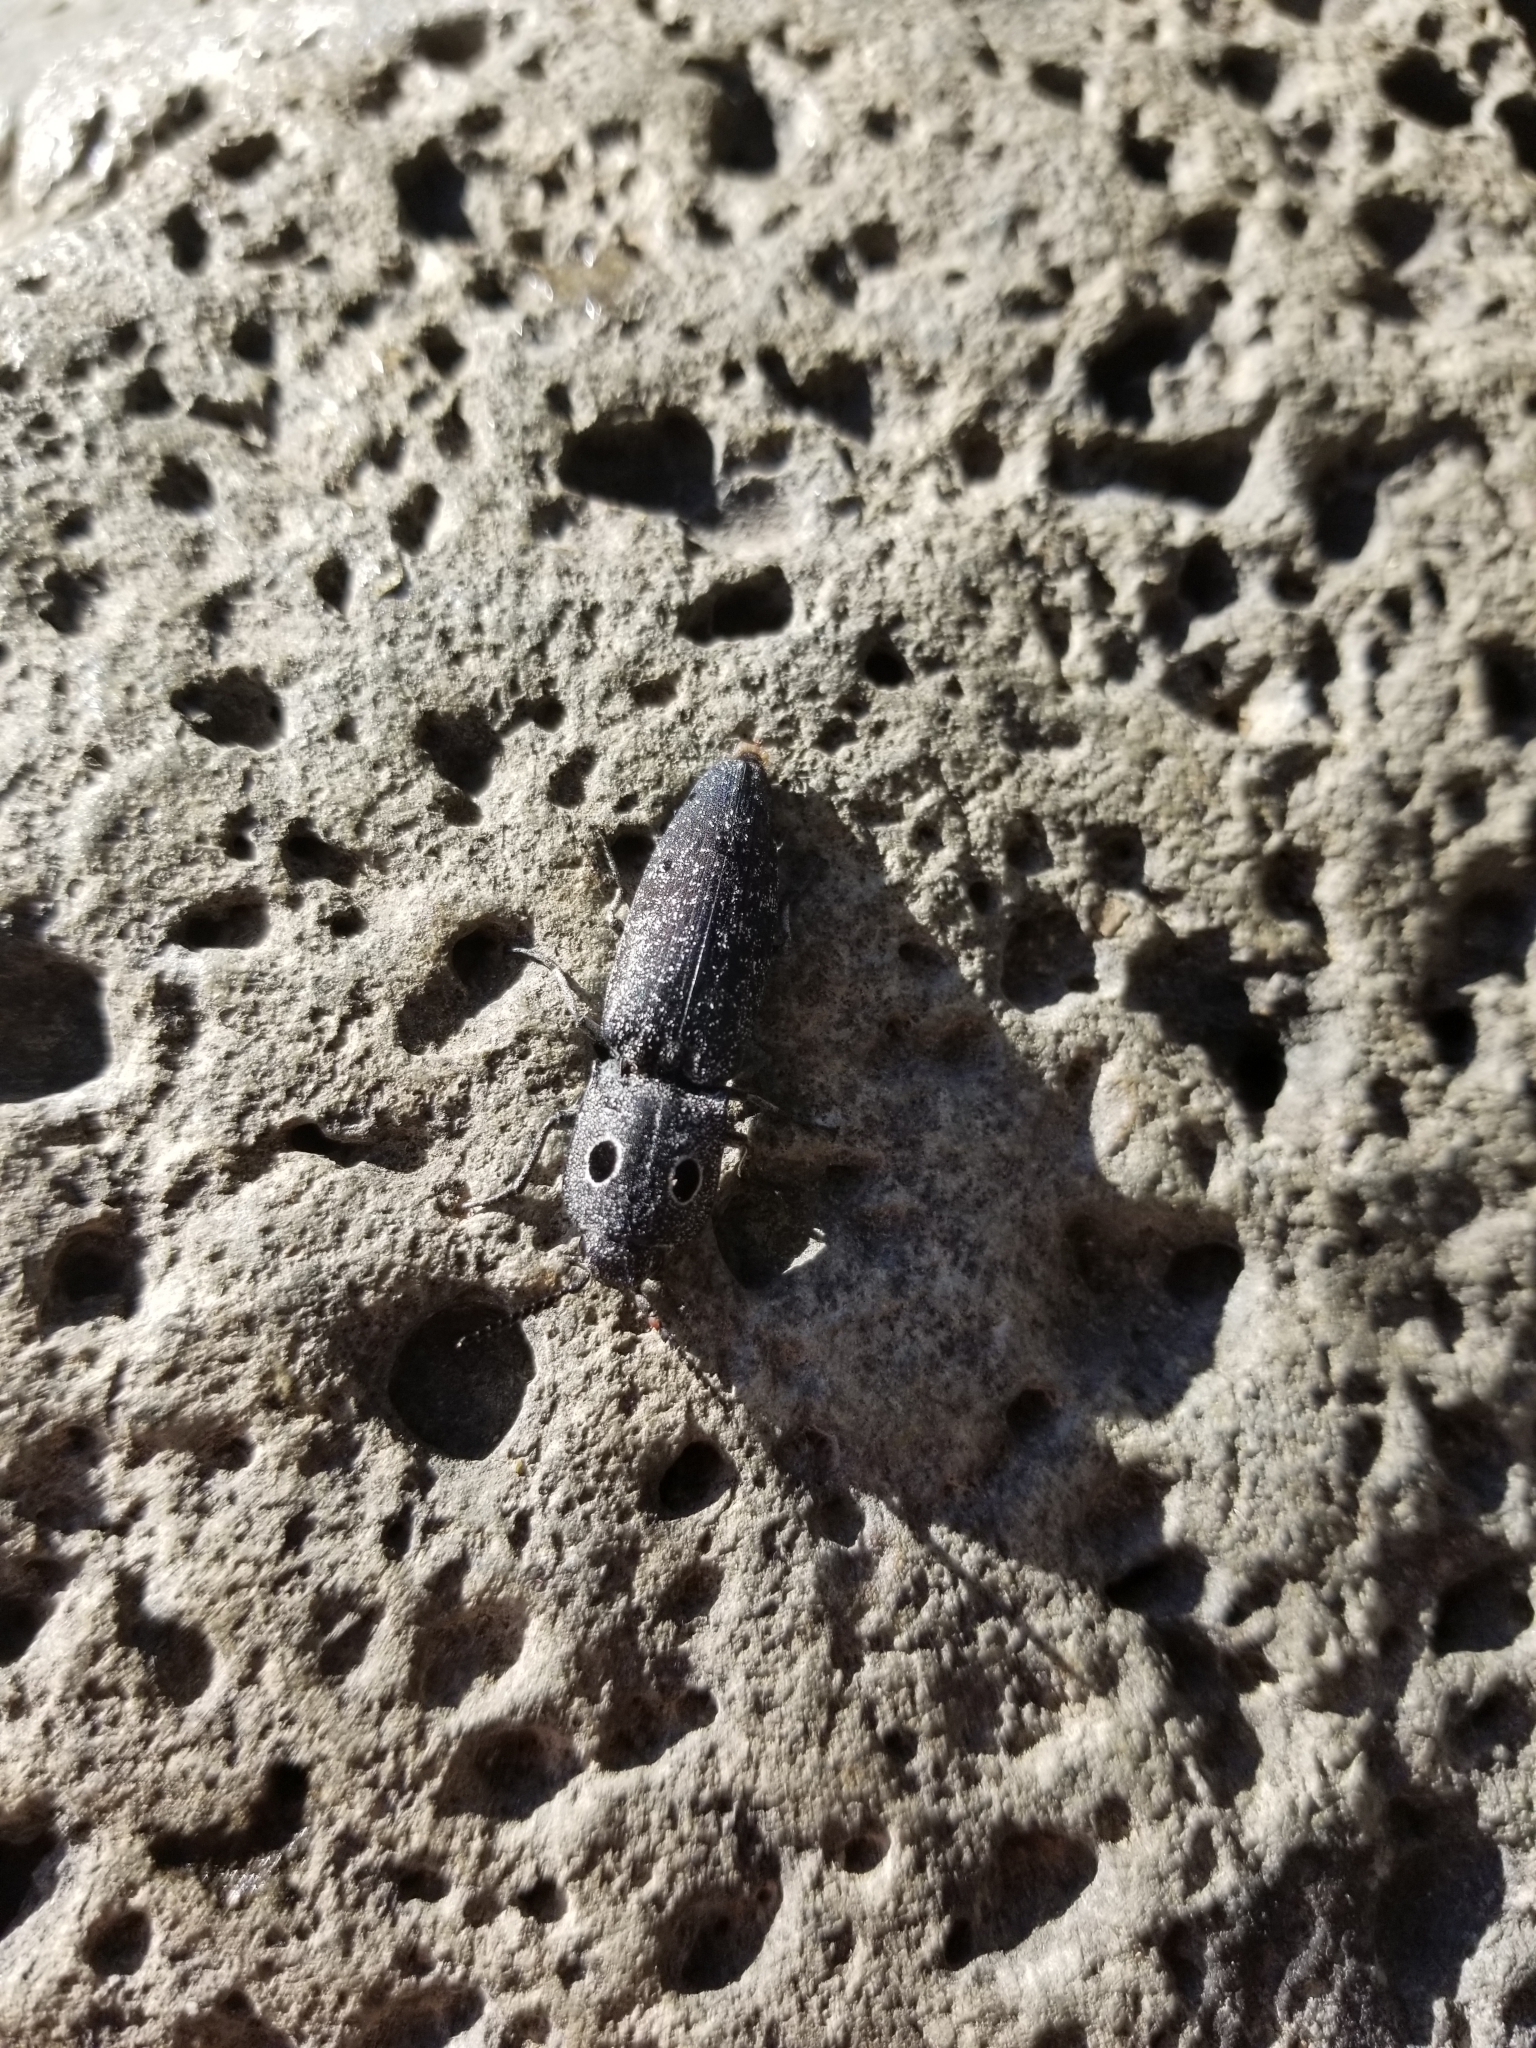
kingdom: Animalia
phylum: Arthropoda
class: Insecta
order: Coleoptera
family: Elateridae
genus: Alaus
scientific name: Alaus melanops
